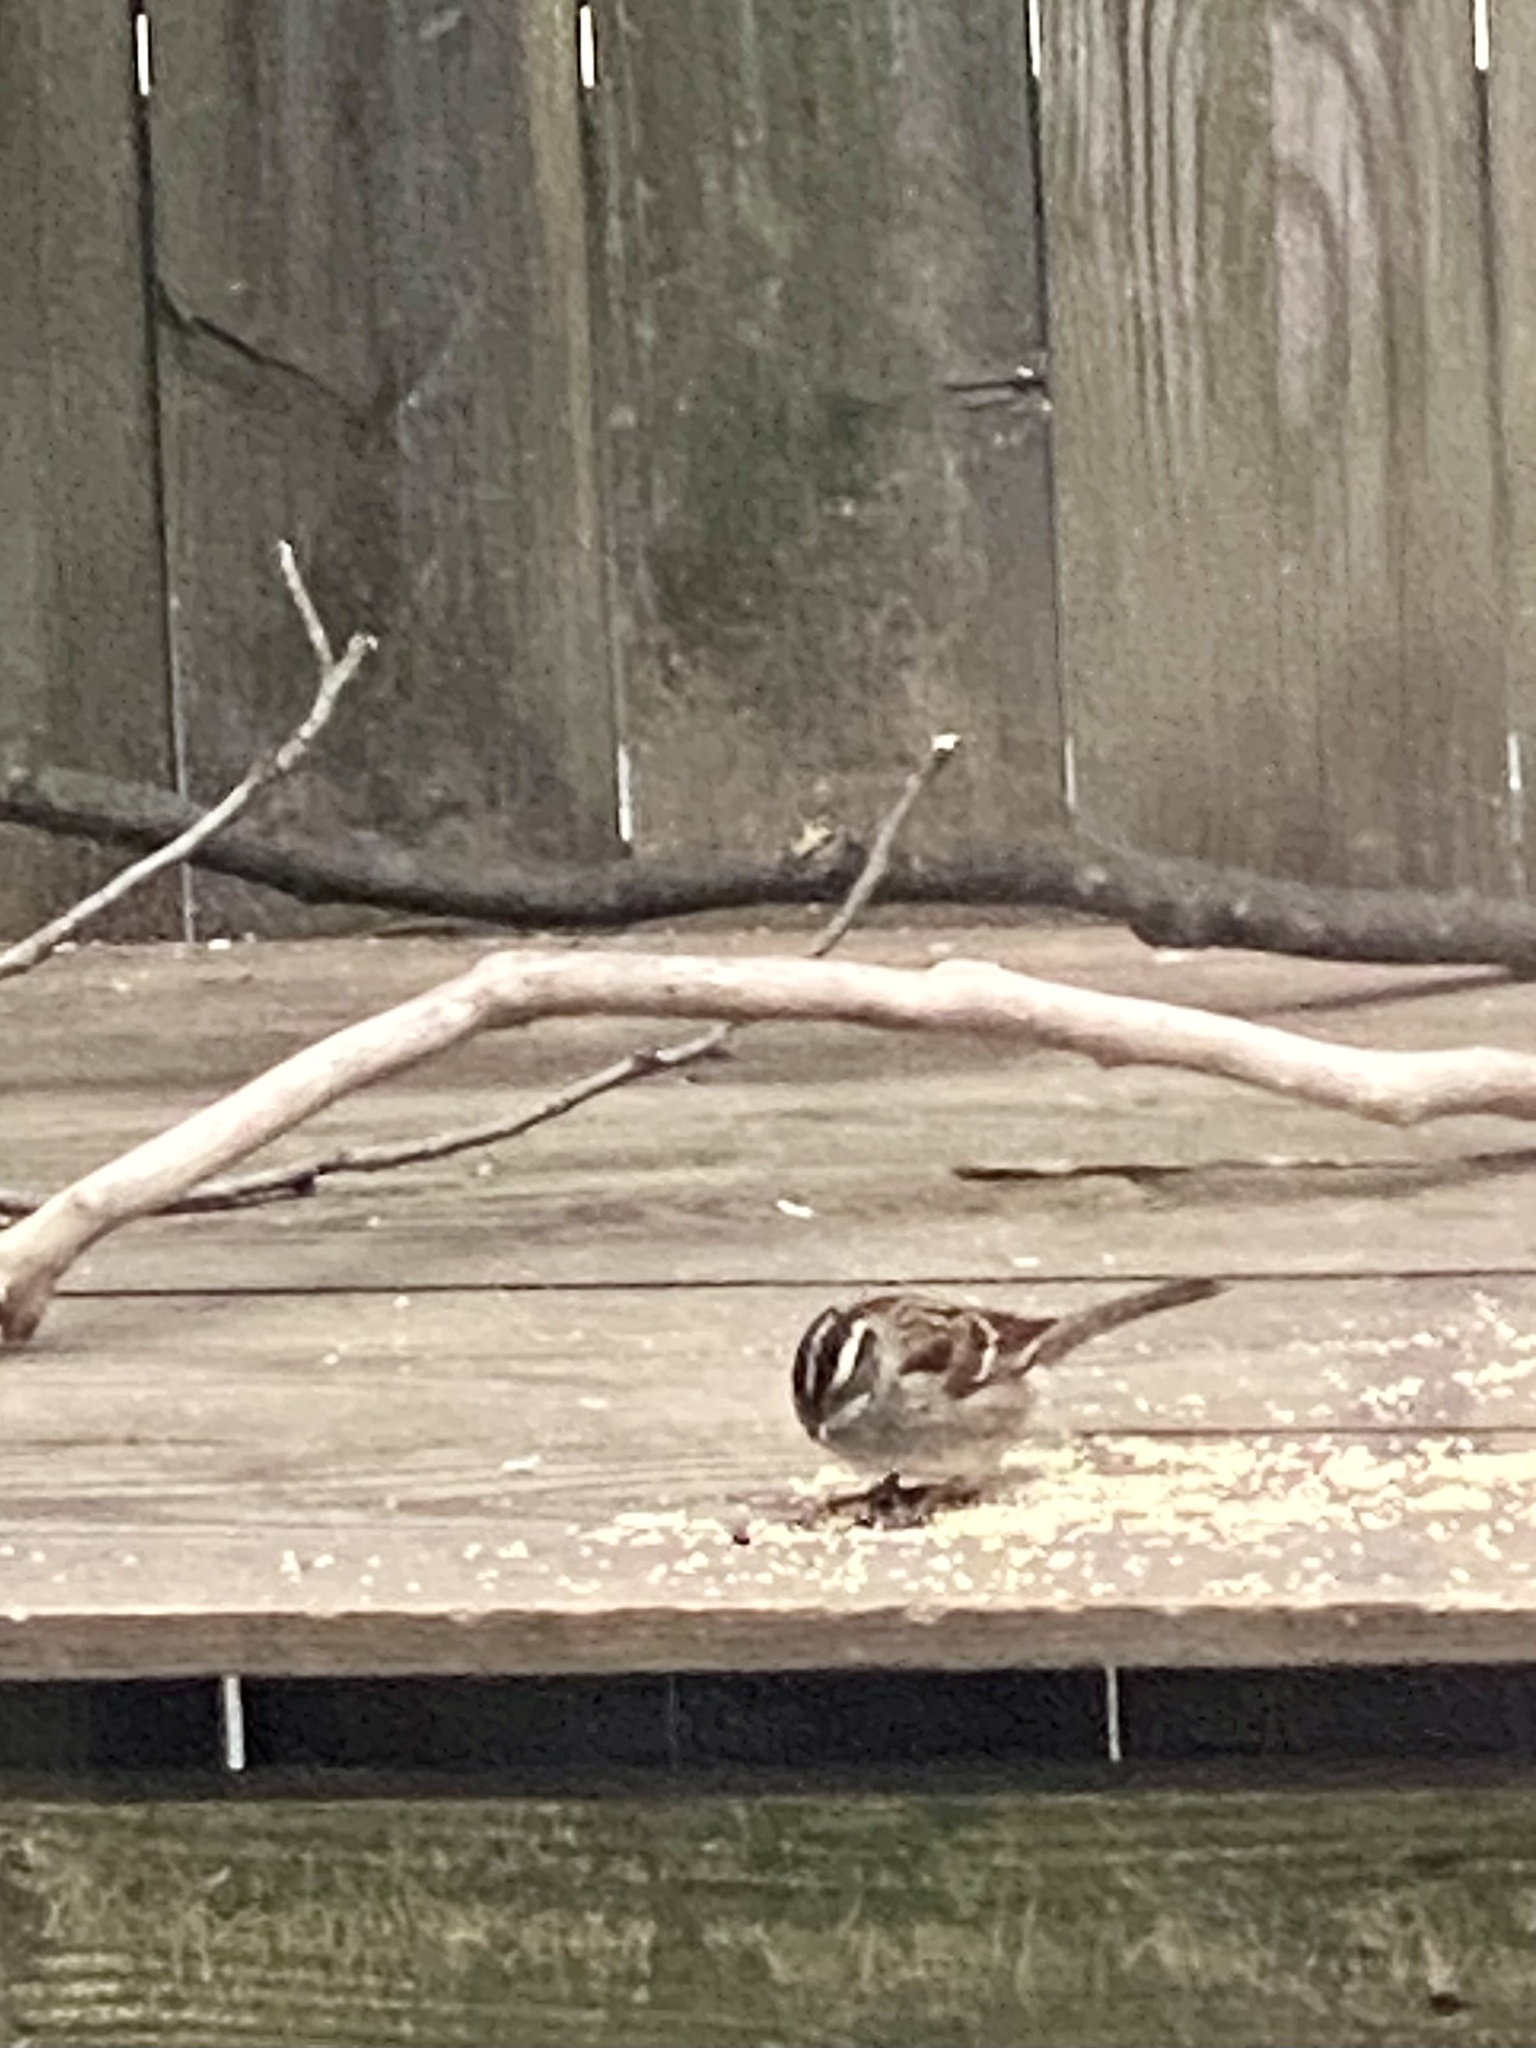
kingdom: Animalia
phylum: Chordata
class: Aves
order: Passeriformes
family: Passerellidae
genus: Zonotrichia
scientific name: Zonotrichia albicollis
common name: White-throated sparrow
